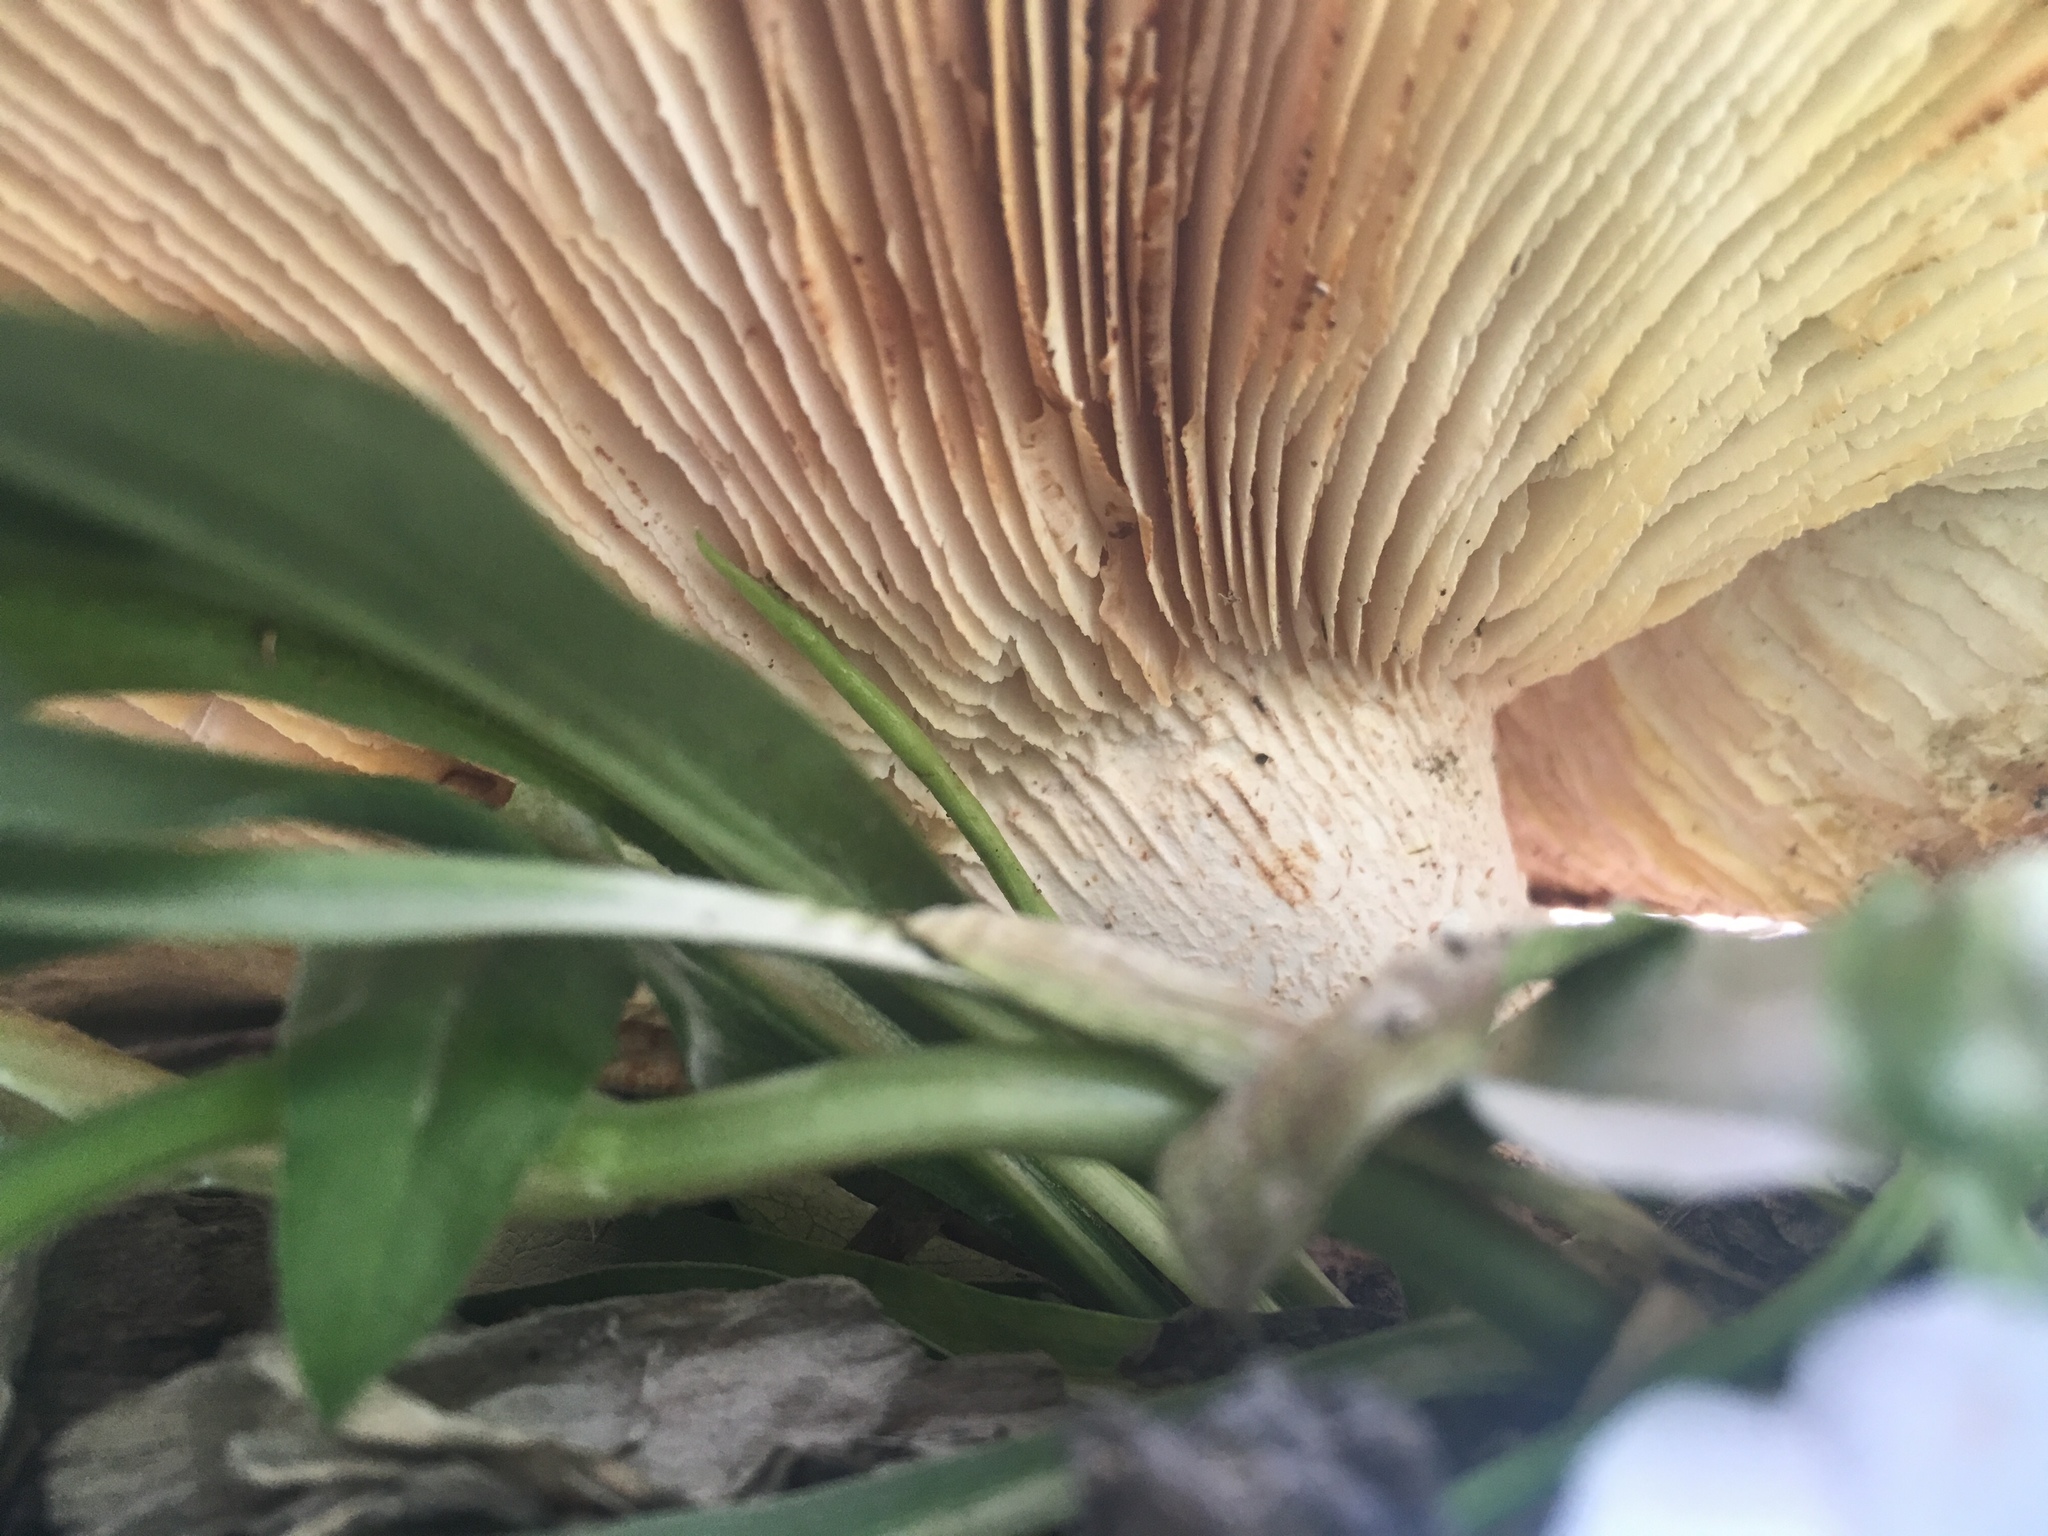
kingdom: Fungi
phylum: Basidiomycota
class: Agaricomycetes
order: Gloeophyllales
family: Gloeophyllaceae
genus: Neolentinus
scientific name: Neolentinus ponderosus
